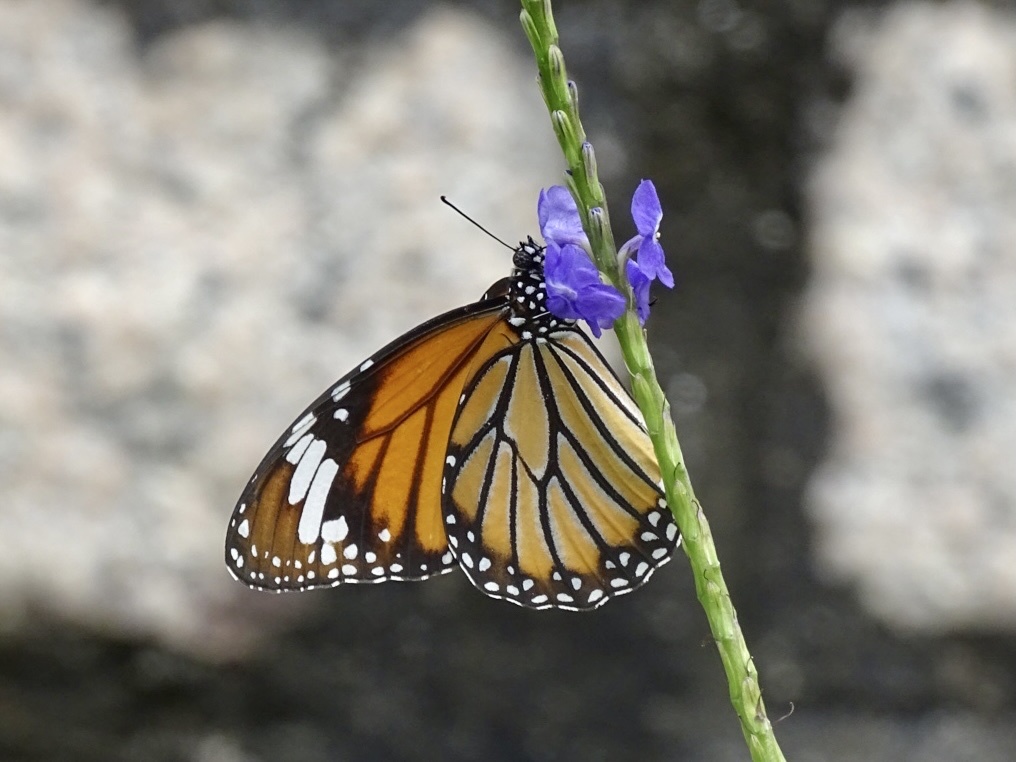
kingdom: Animalia
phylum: Arthropoda
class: Insecta
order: Lepidoptera
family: Nymphalidae
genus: Danaus
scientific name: Danaus genutia
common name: Common tiger butterfly
